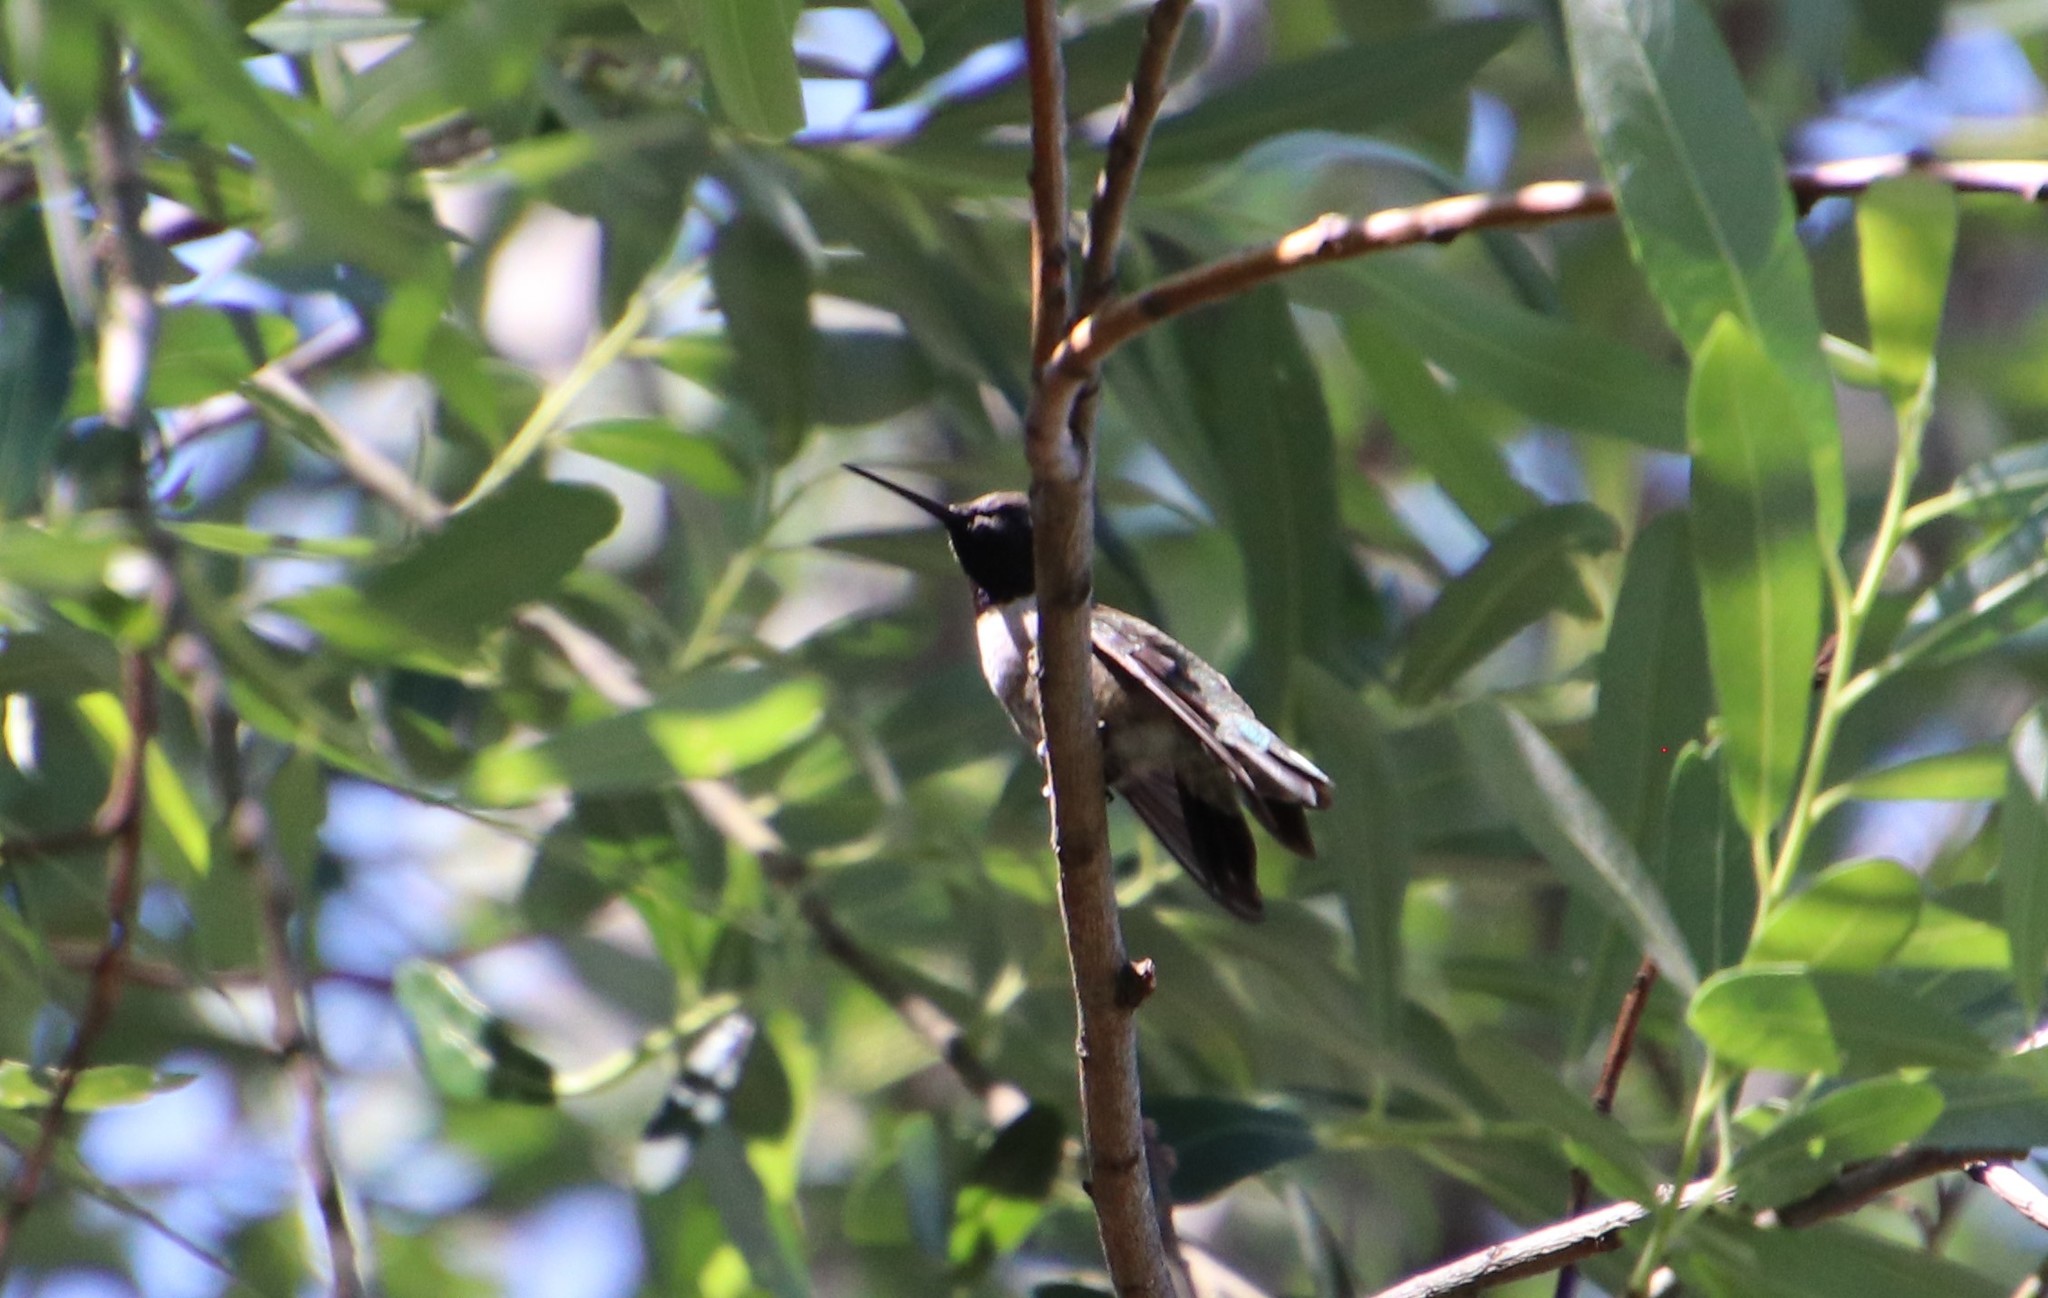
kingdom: Animalia
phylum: Chordata
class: Aves
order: Apodiformes
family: Trochilidae
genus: Archilochus
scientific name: Archilochus alexandri
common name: Black-chinned hummingbird
